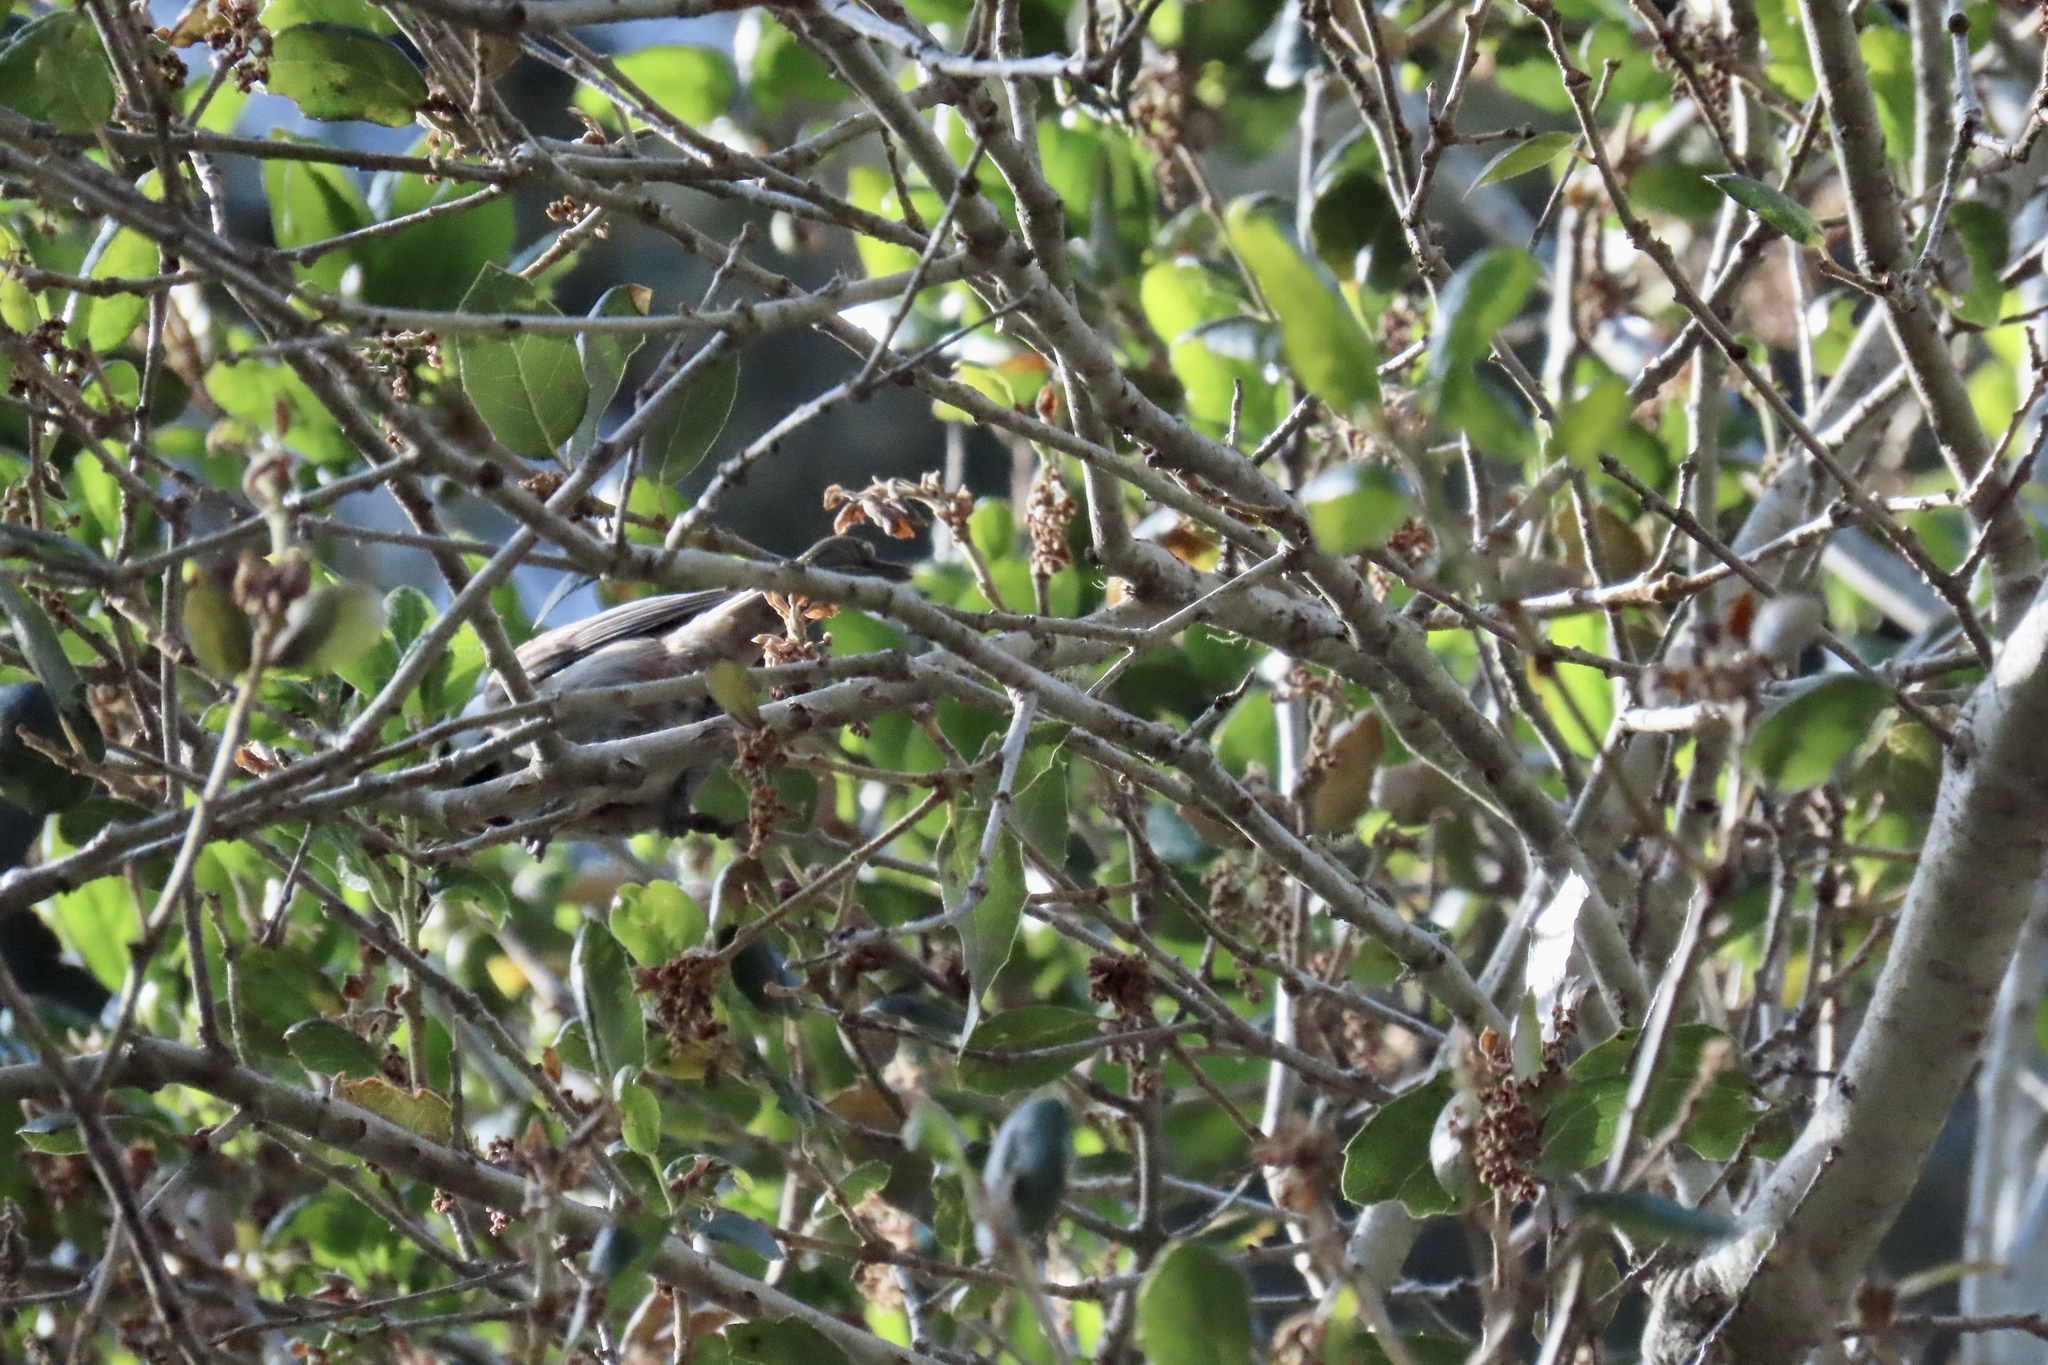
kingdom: Animalia
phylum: Chordata
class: Aves
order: Passeriformes
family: Paridae
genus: Poecile
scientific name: Poecile rufescens
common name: Chestnut-backed chickadee
